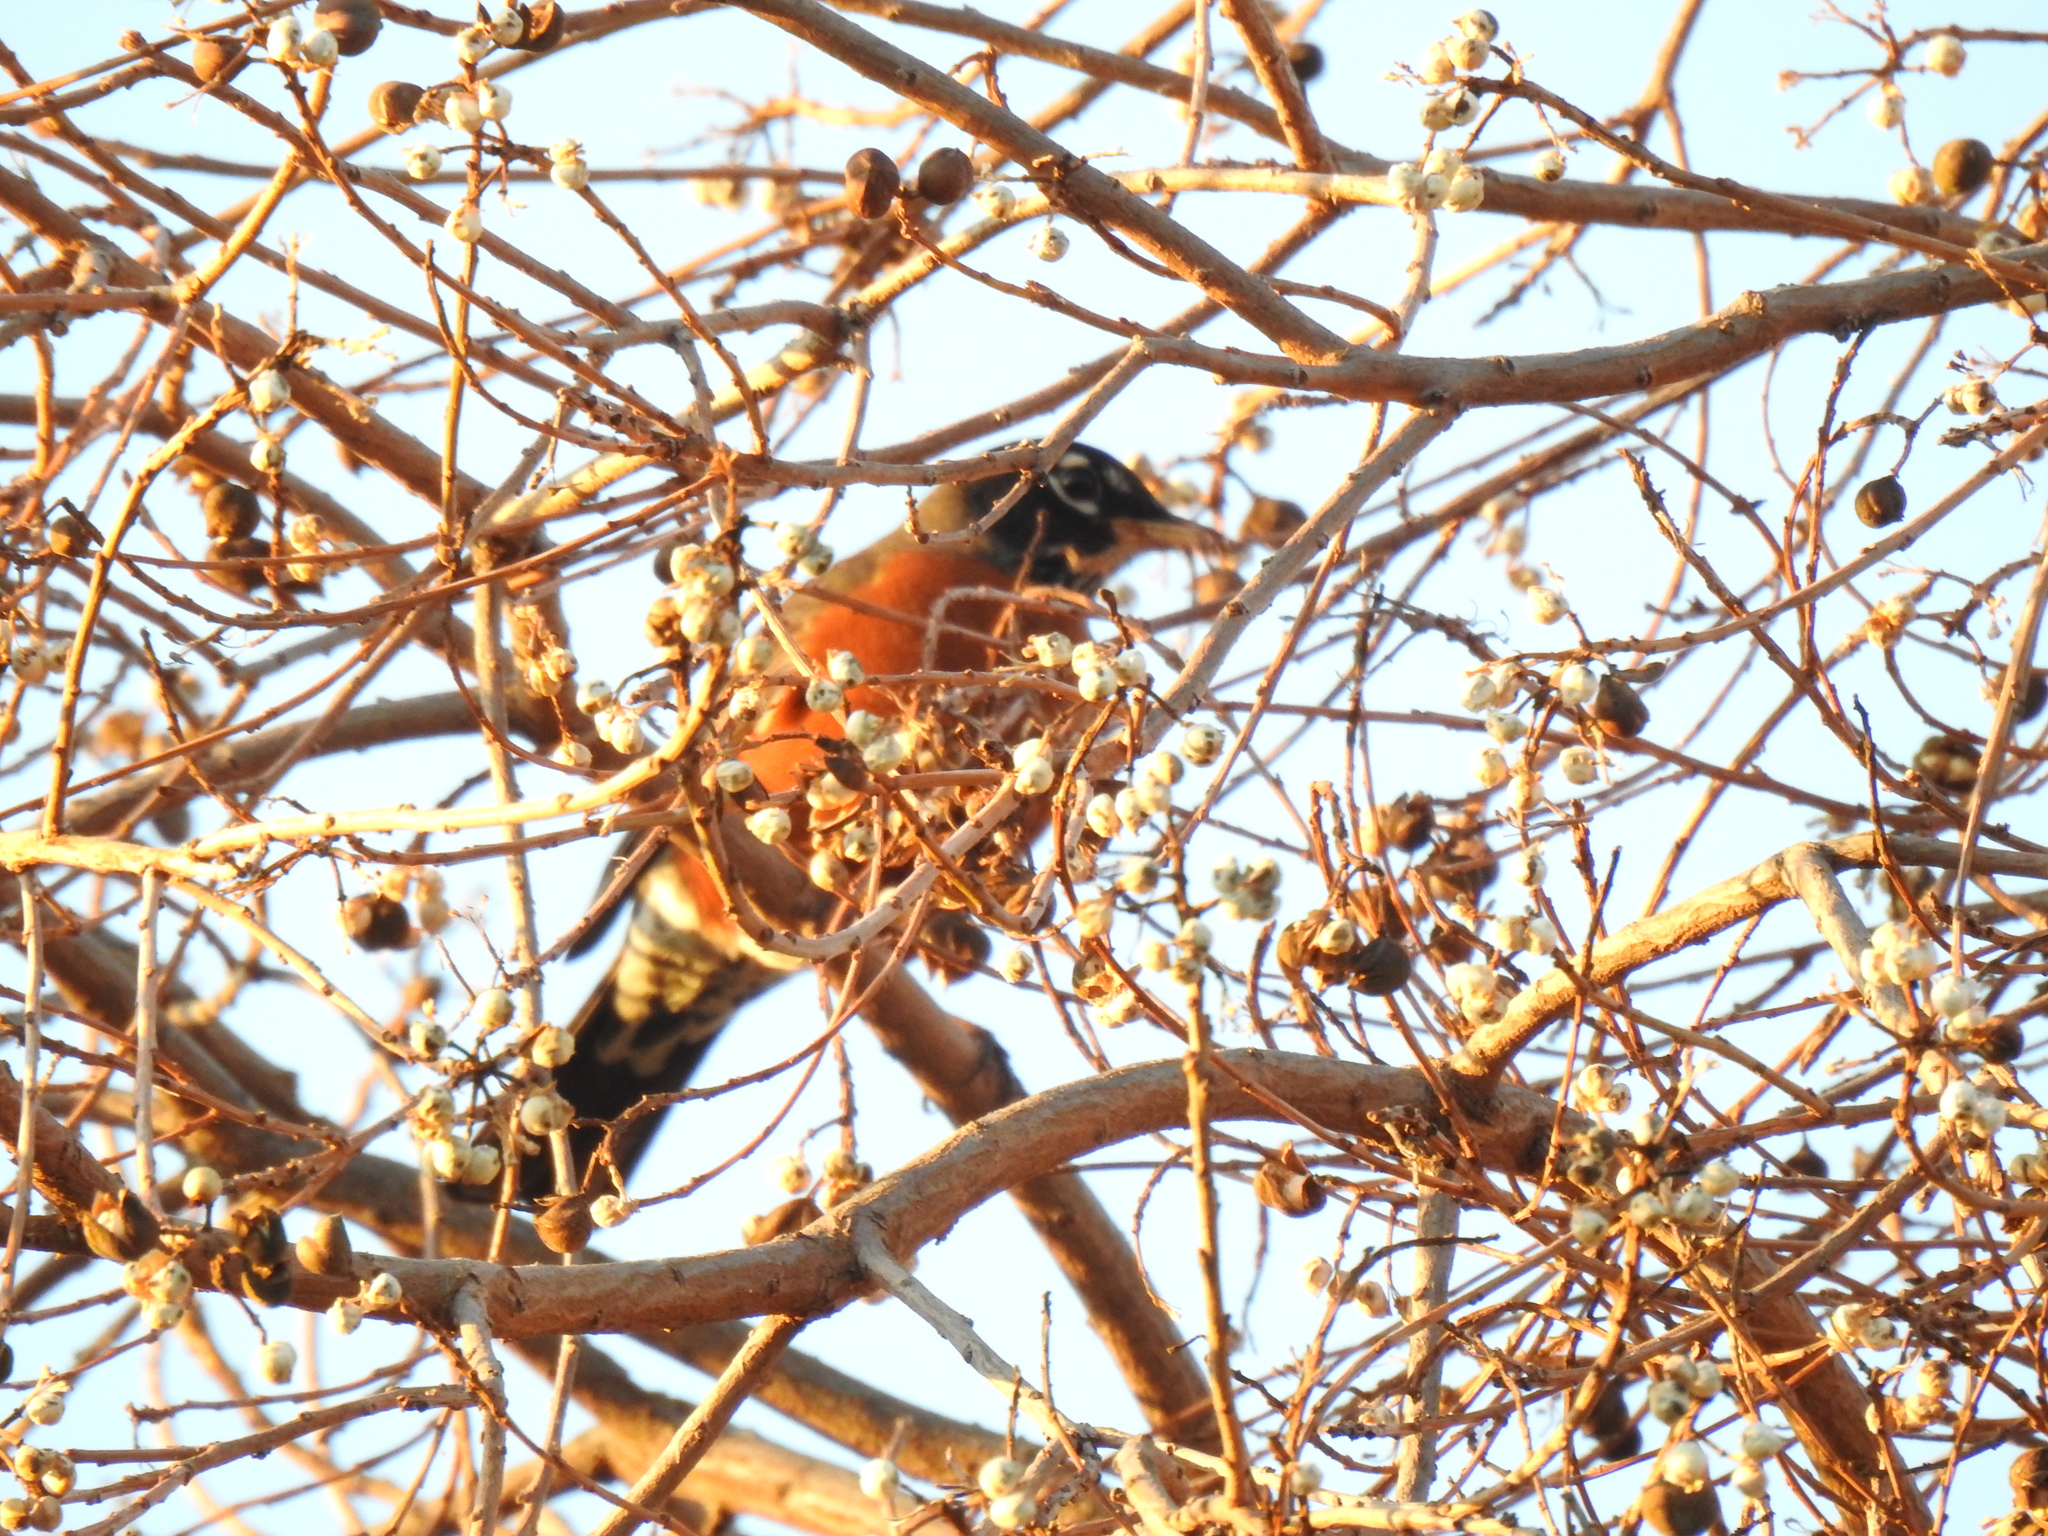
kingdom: Animalia
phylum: Chordata
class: Aves
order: Passeriformes
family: Turdidae
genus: Turdus
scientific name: Turdus migratorius
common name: American robin
